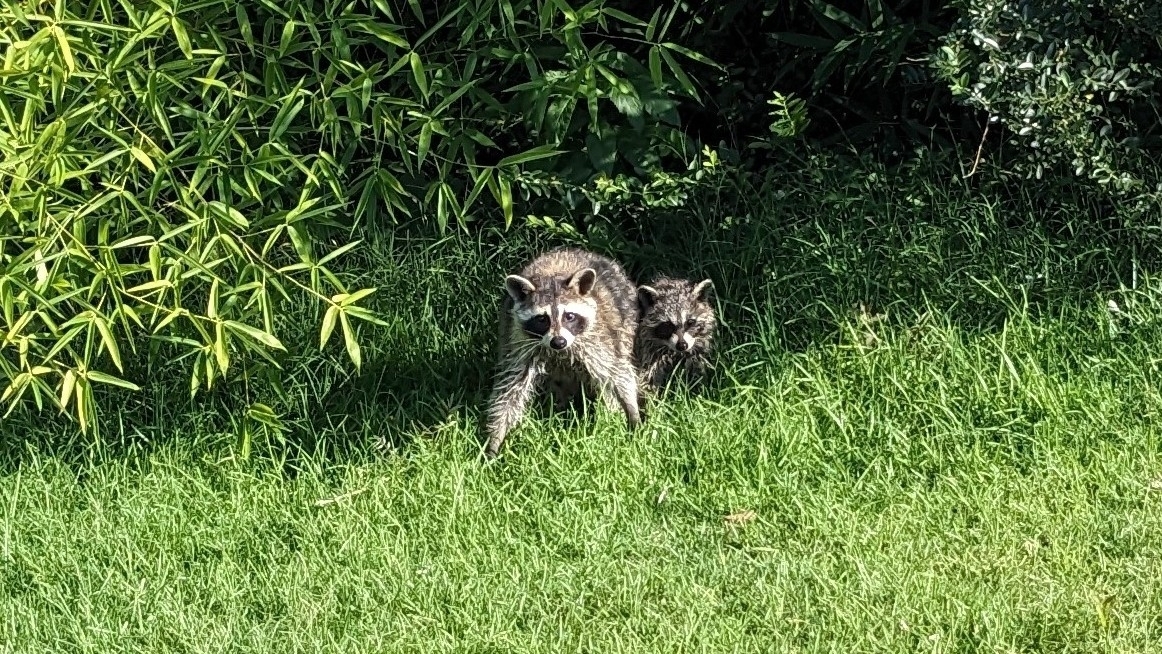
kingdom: Animalia
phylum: Chordata
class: Mammalia
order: Carnivora
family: Procyonidae
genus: Procyon
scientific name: Procyon lotor
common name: Raccoon
